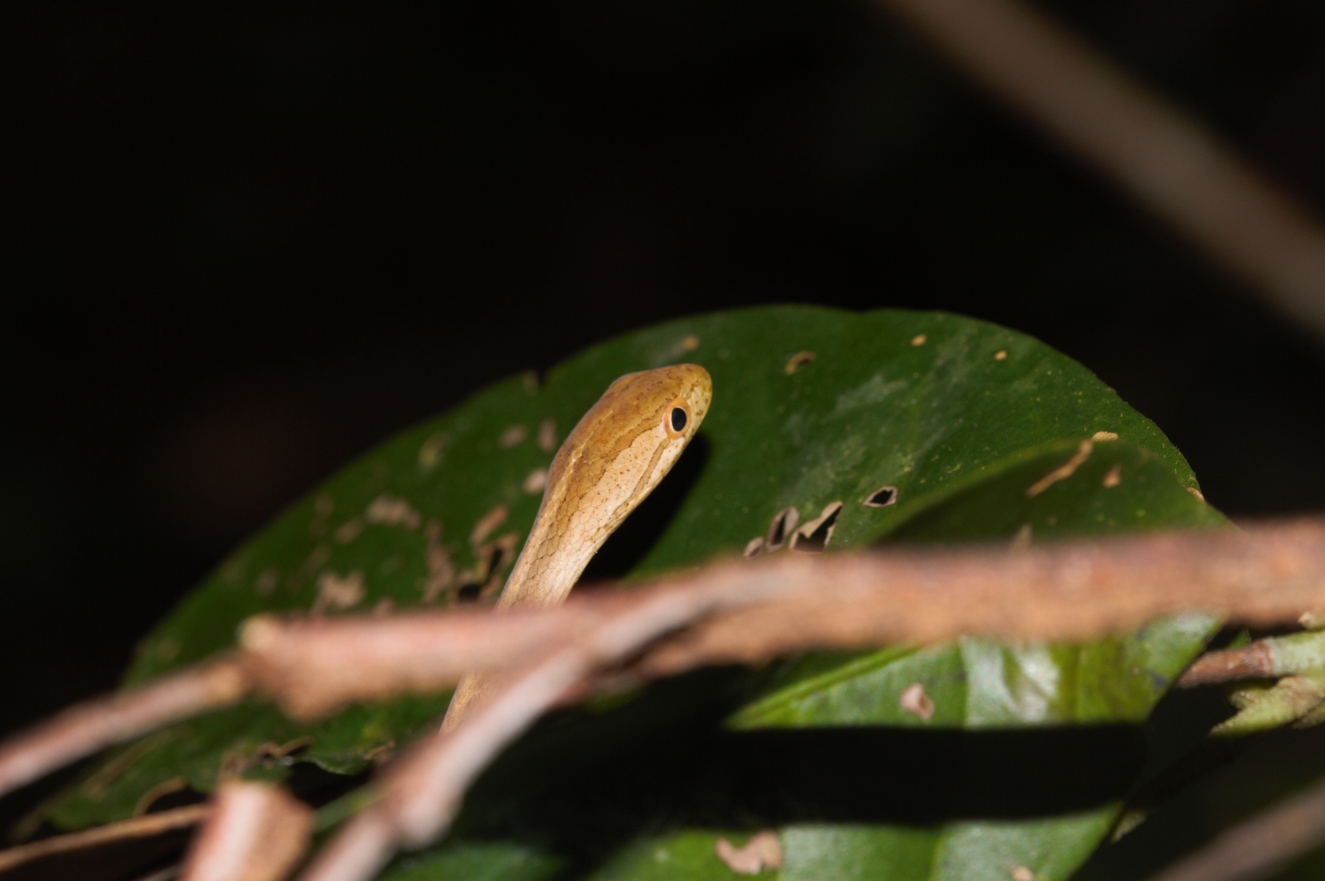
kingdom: Animalia
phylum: Chordata
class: Squamata
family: Colubridae
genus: Thamnodynastes
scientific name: Thamnodynastes pallidus
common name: Amazon coastal house snake
